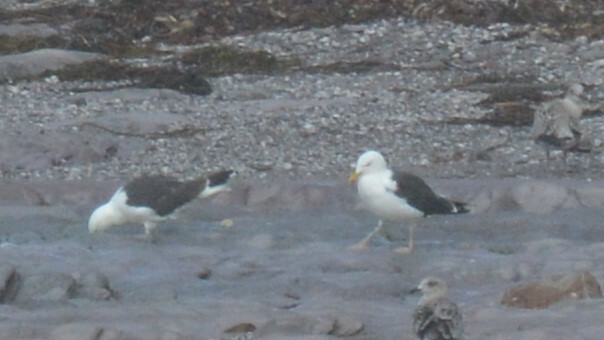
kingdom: Animalia
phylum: Chordata
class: Aves
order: Charadriiformes
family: Laridae
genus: Larus
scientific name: Larus marinus
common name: Great black-backed gull
